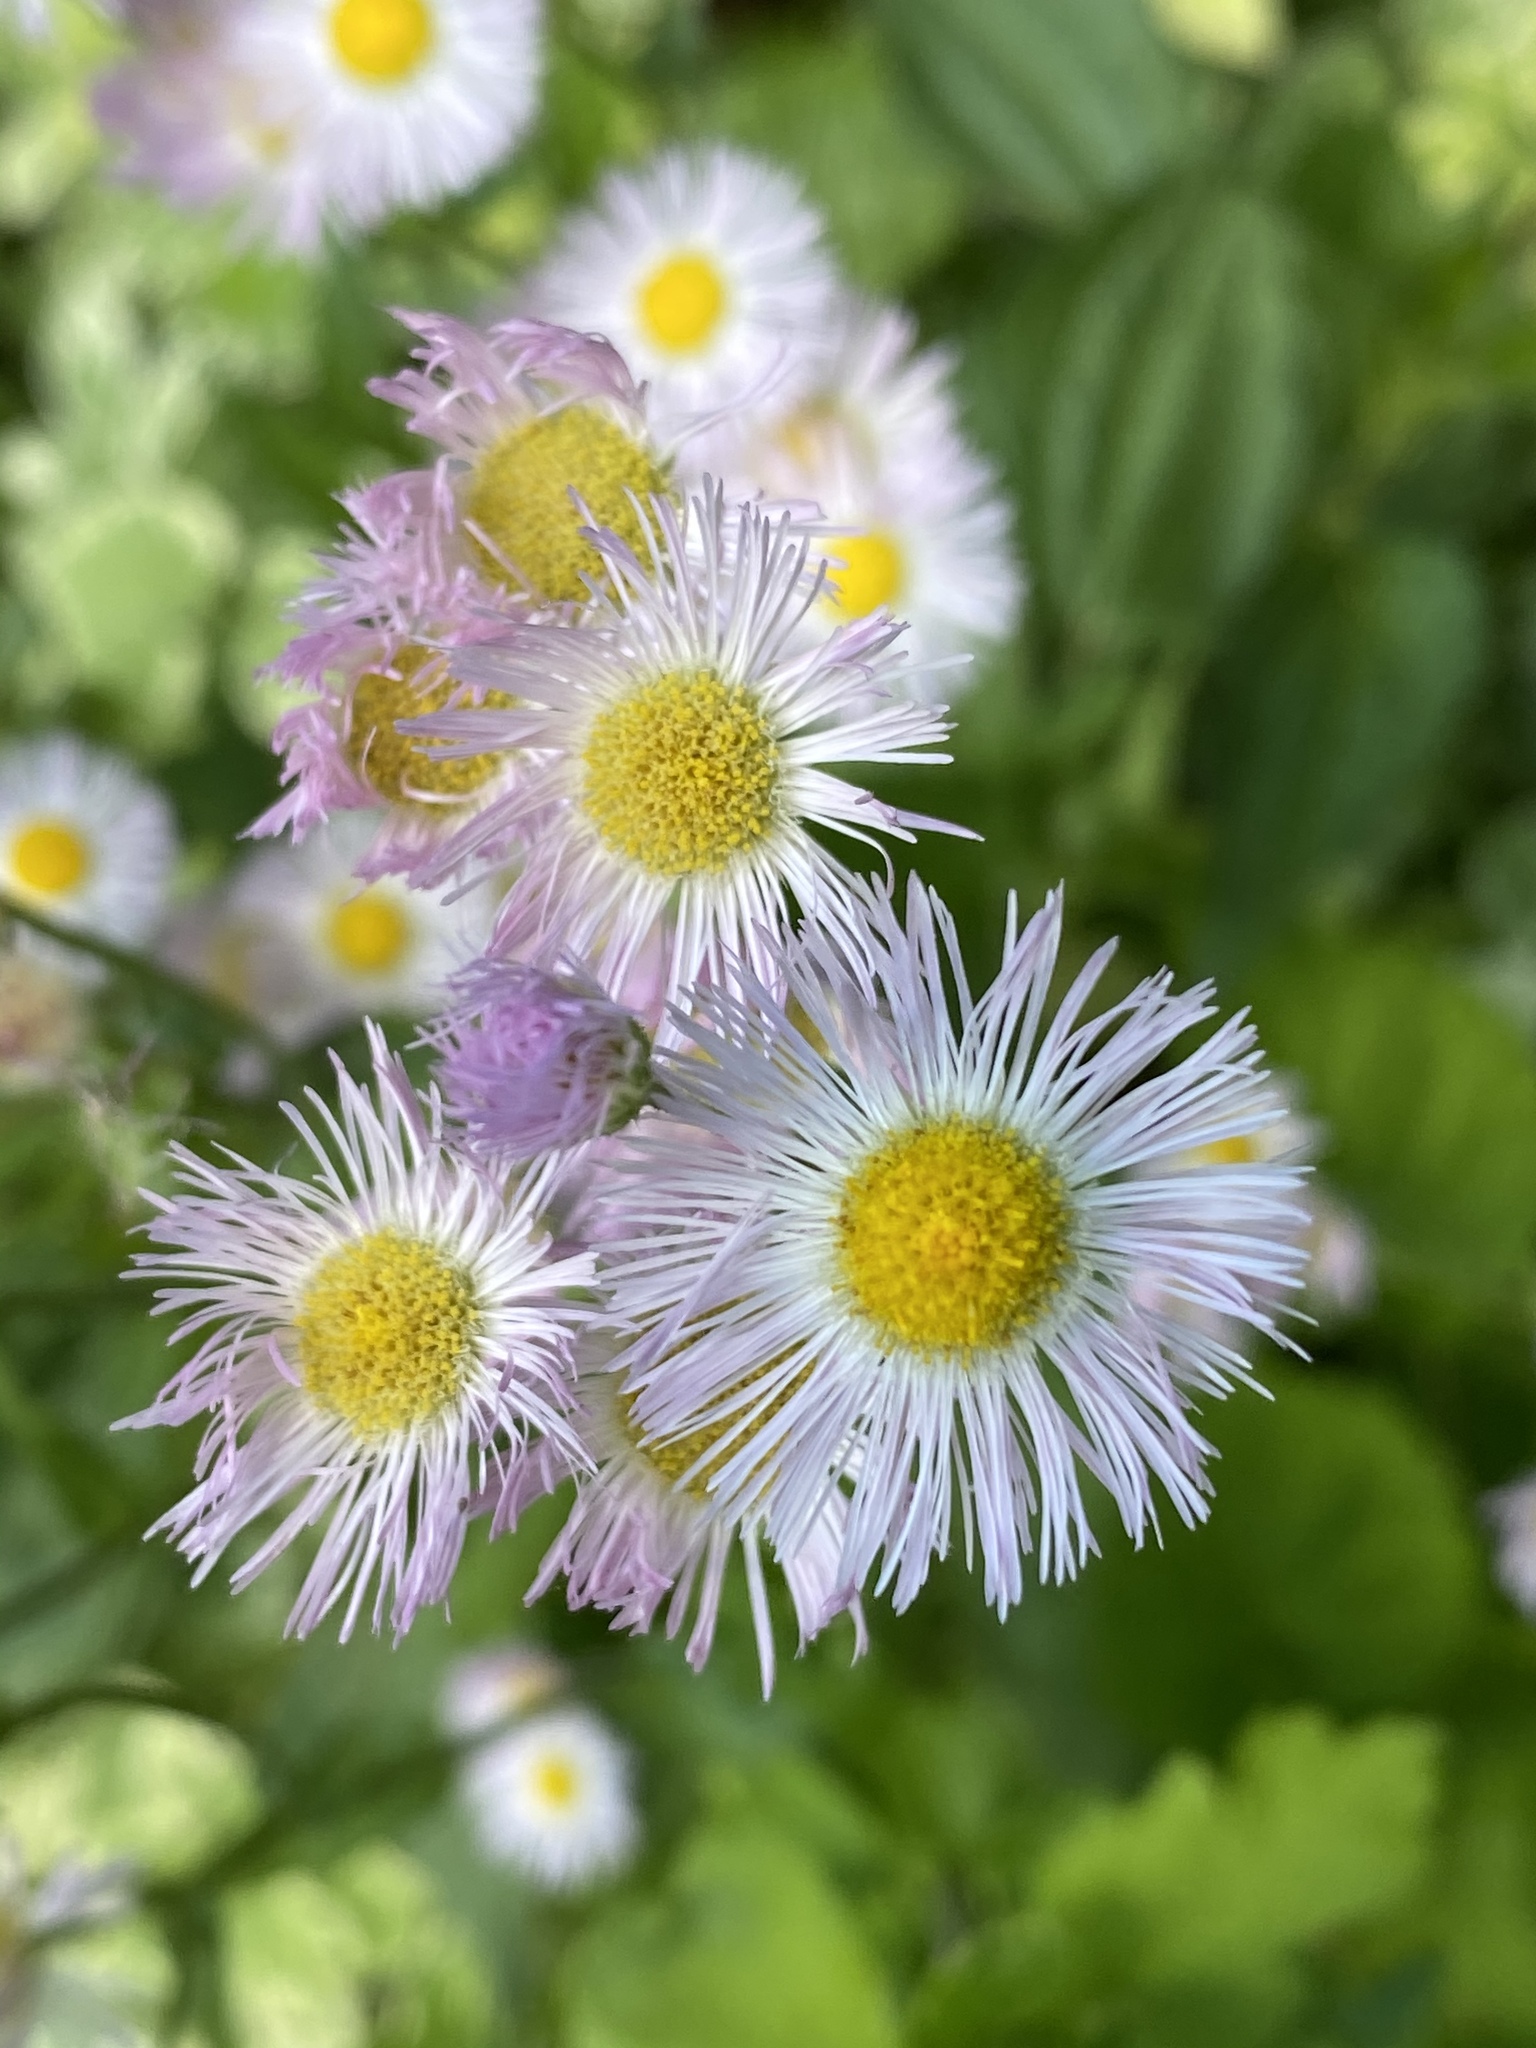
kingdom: Plantae
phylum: Tracheophyta
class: Magnoliopsida
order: Asterales
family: Asteraceae
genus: Erigeron
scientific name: Erigeron philadelphicus
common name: Robin's-plantain
